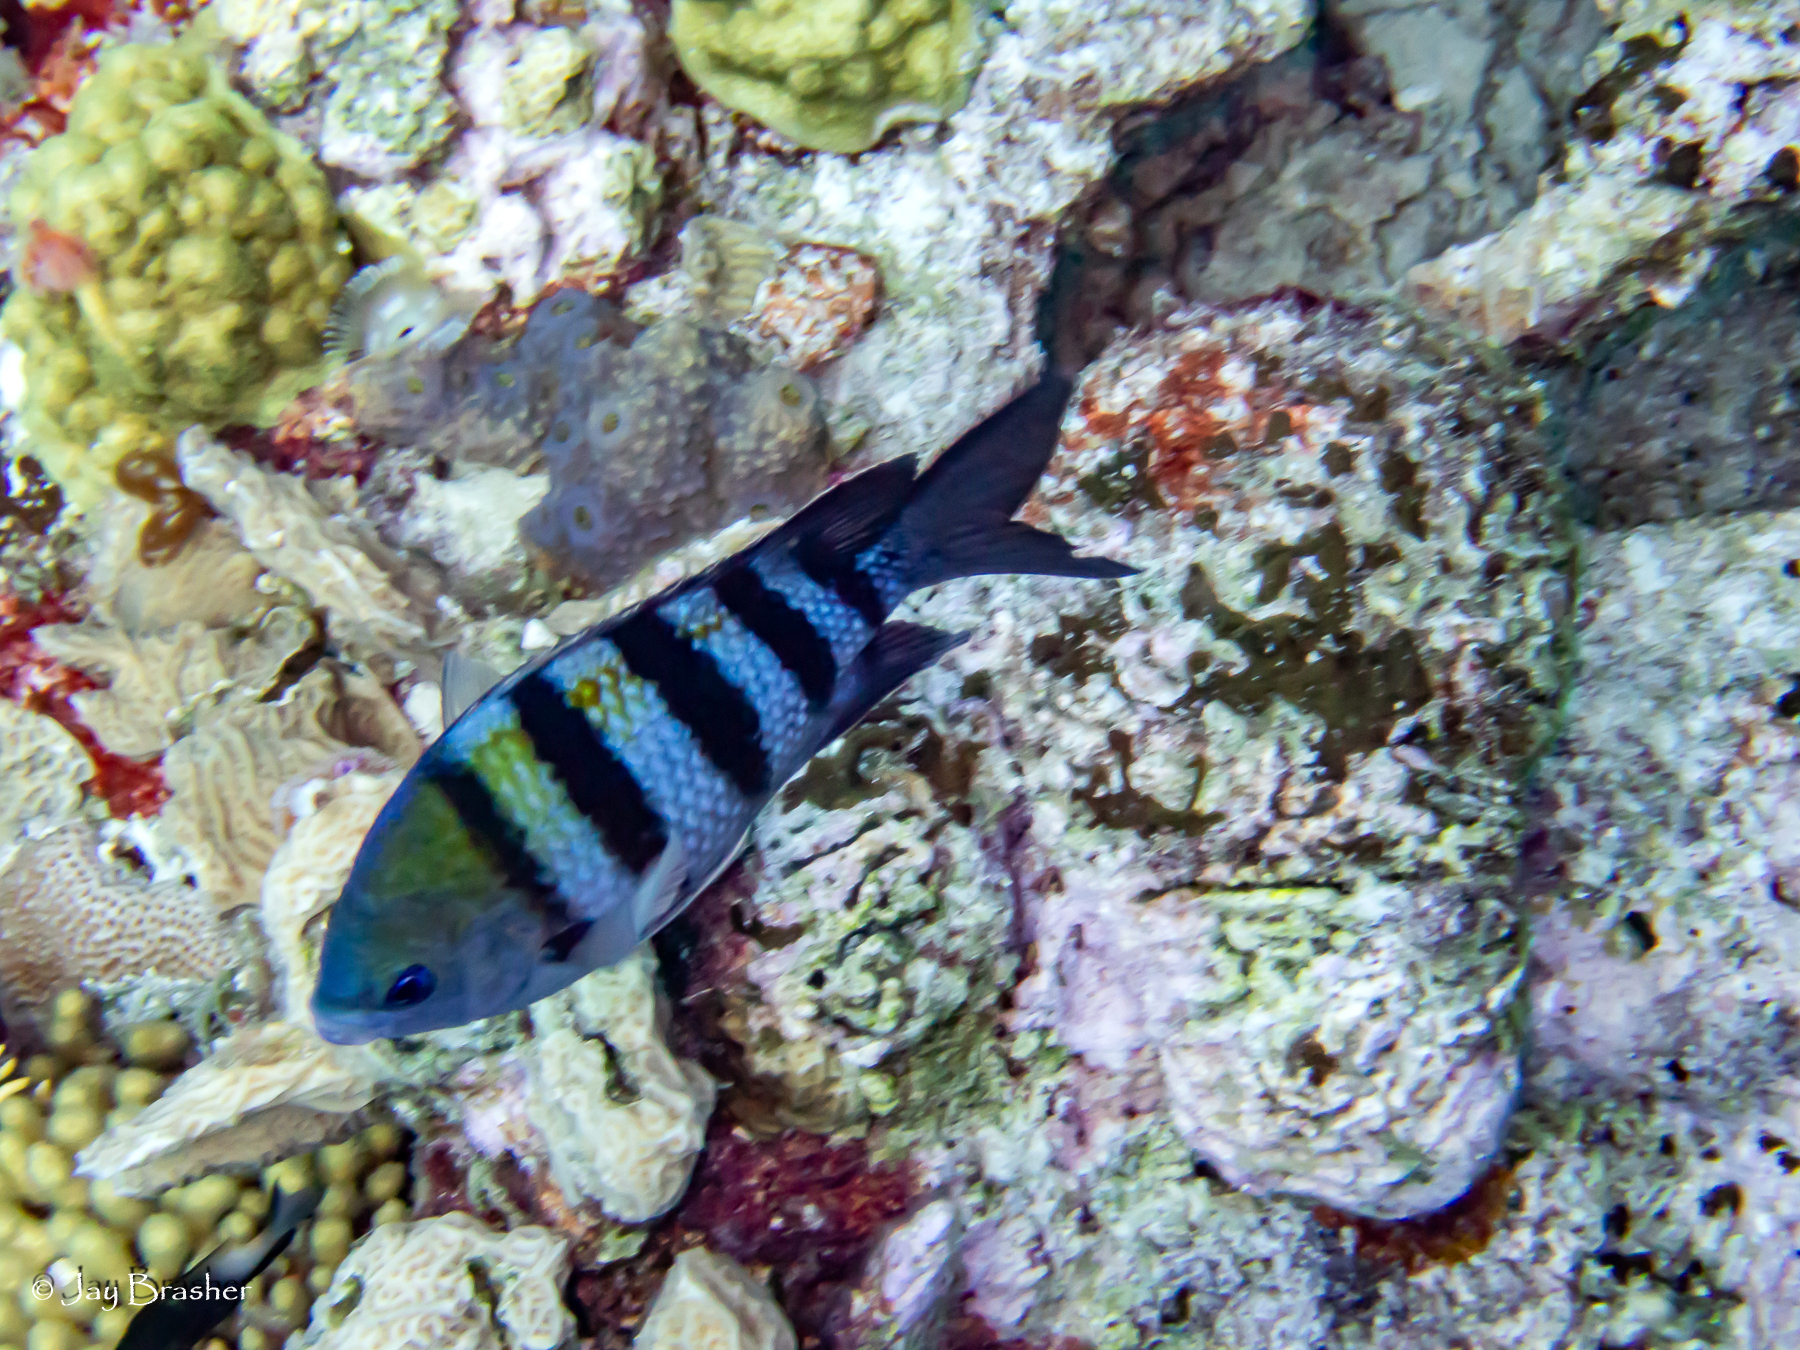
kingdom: Animalia
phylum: Chordata
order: Perciformes
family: Pomacentridae
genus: Abudefduf
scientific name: Abudefduf saxatilis
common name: Sergeant major
